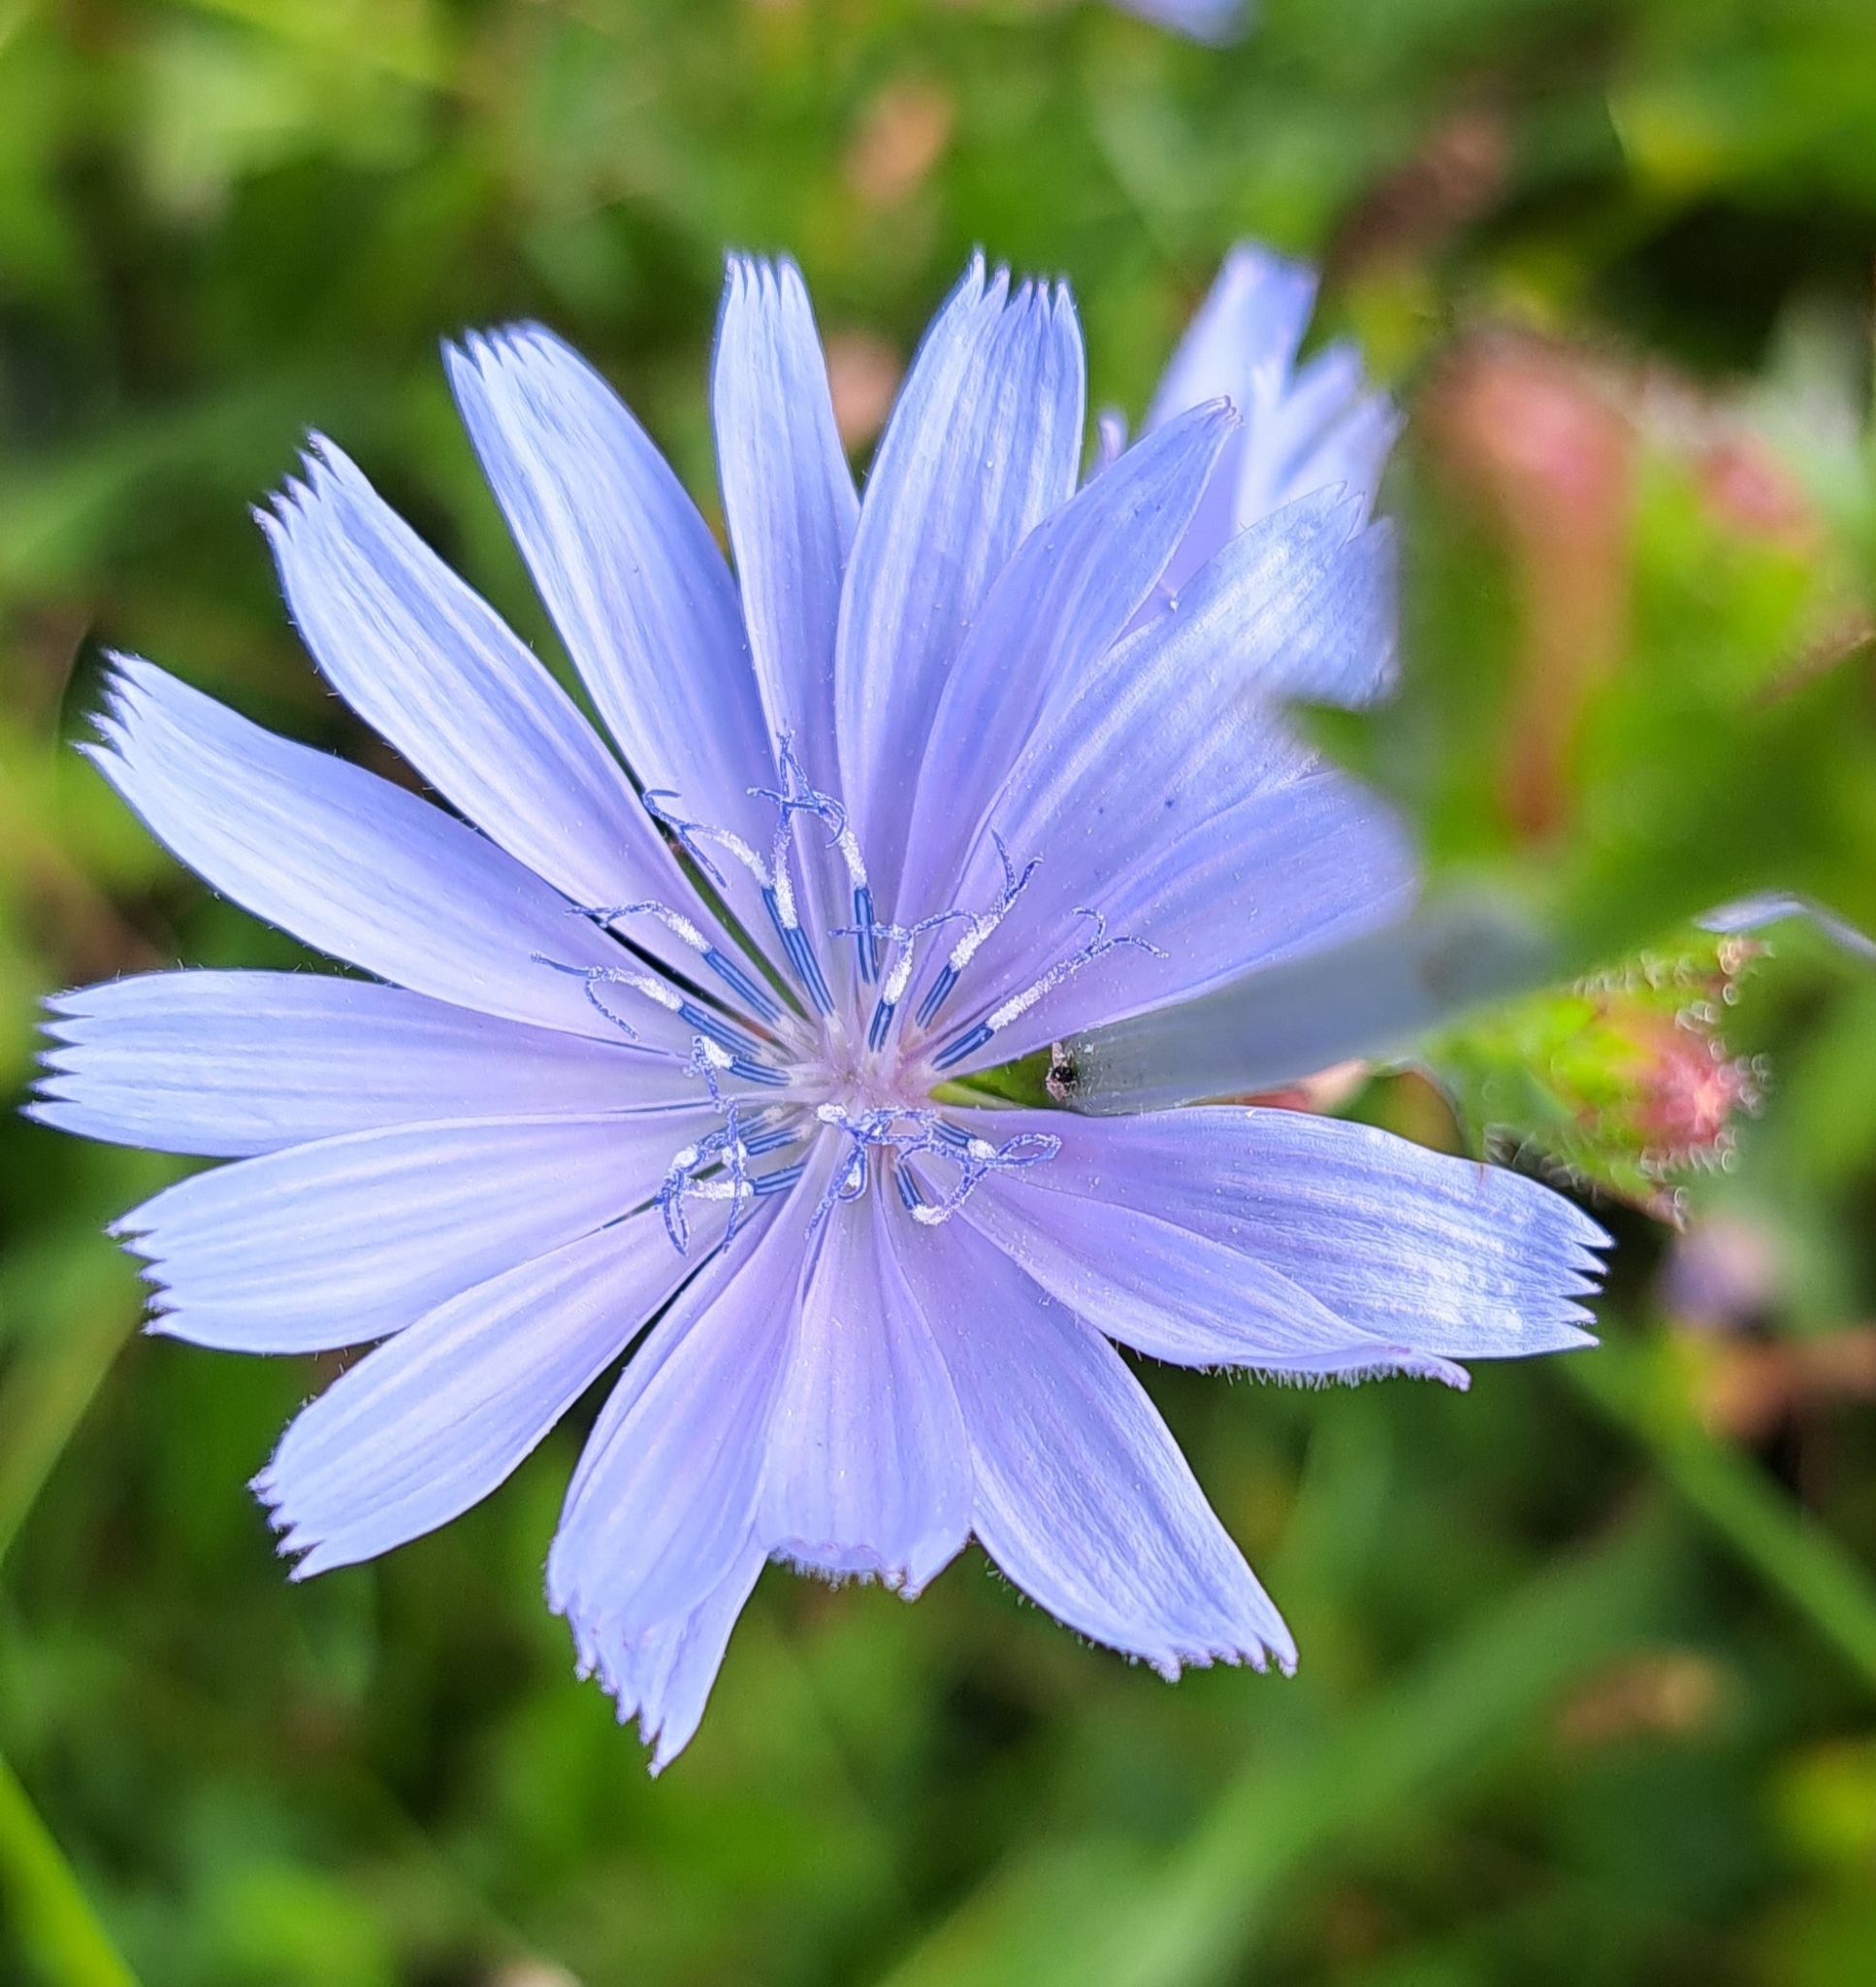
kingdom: Plantae
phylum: Tracheophyta
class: Magnoliopsida
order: Asterales
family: Asteraceae
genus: Cichorium
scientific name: Cichorium intybus
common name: Chicory
